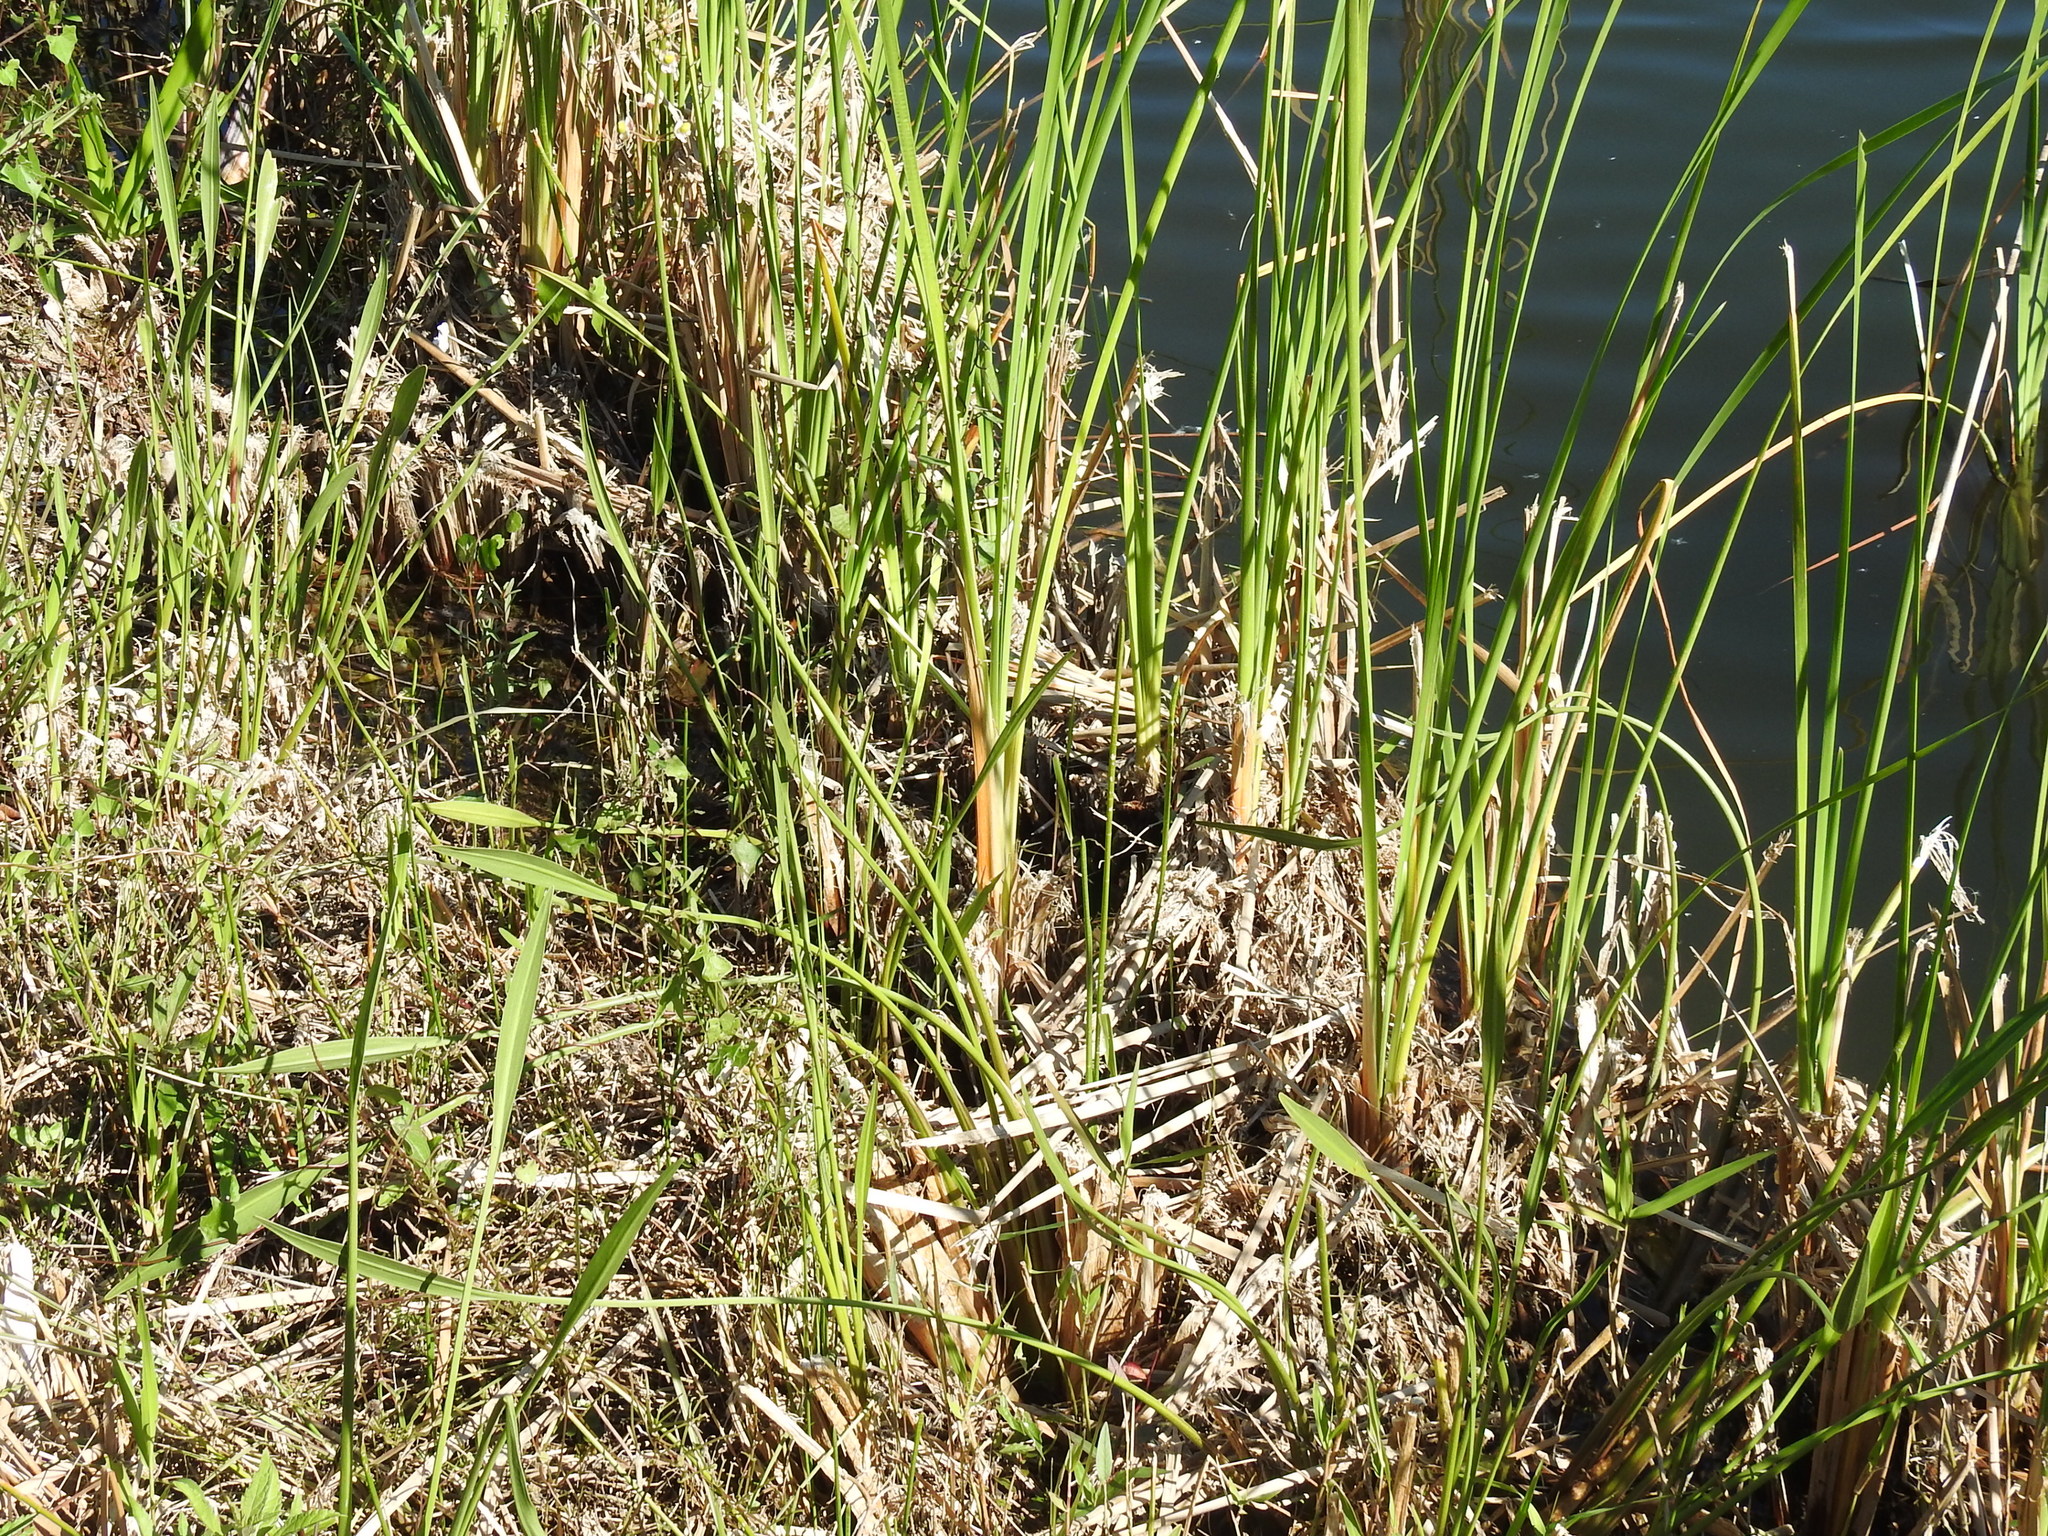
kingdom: Plantae
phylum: Tracheophyta
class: Liliopsida
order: Alismatales
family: Alismataceae
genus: Sagittaria
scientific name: Sagittaria lancifolia
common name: Lance-leaf arrowhead
